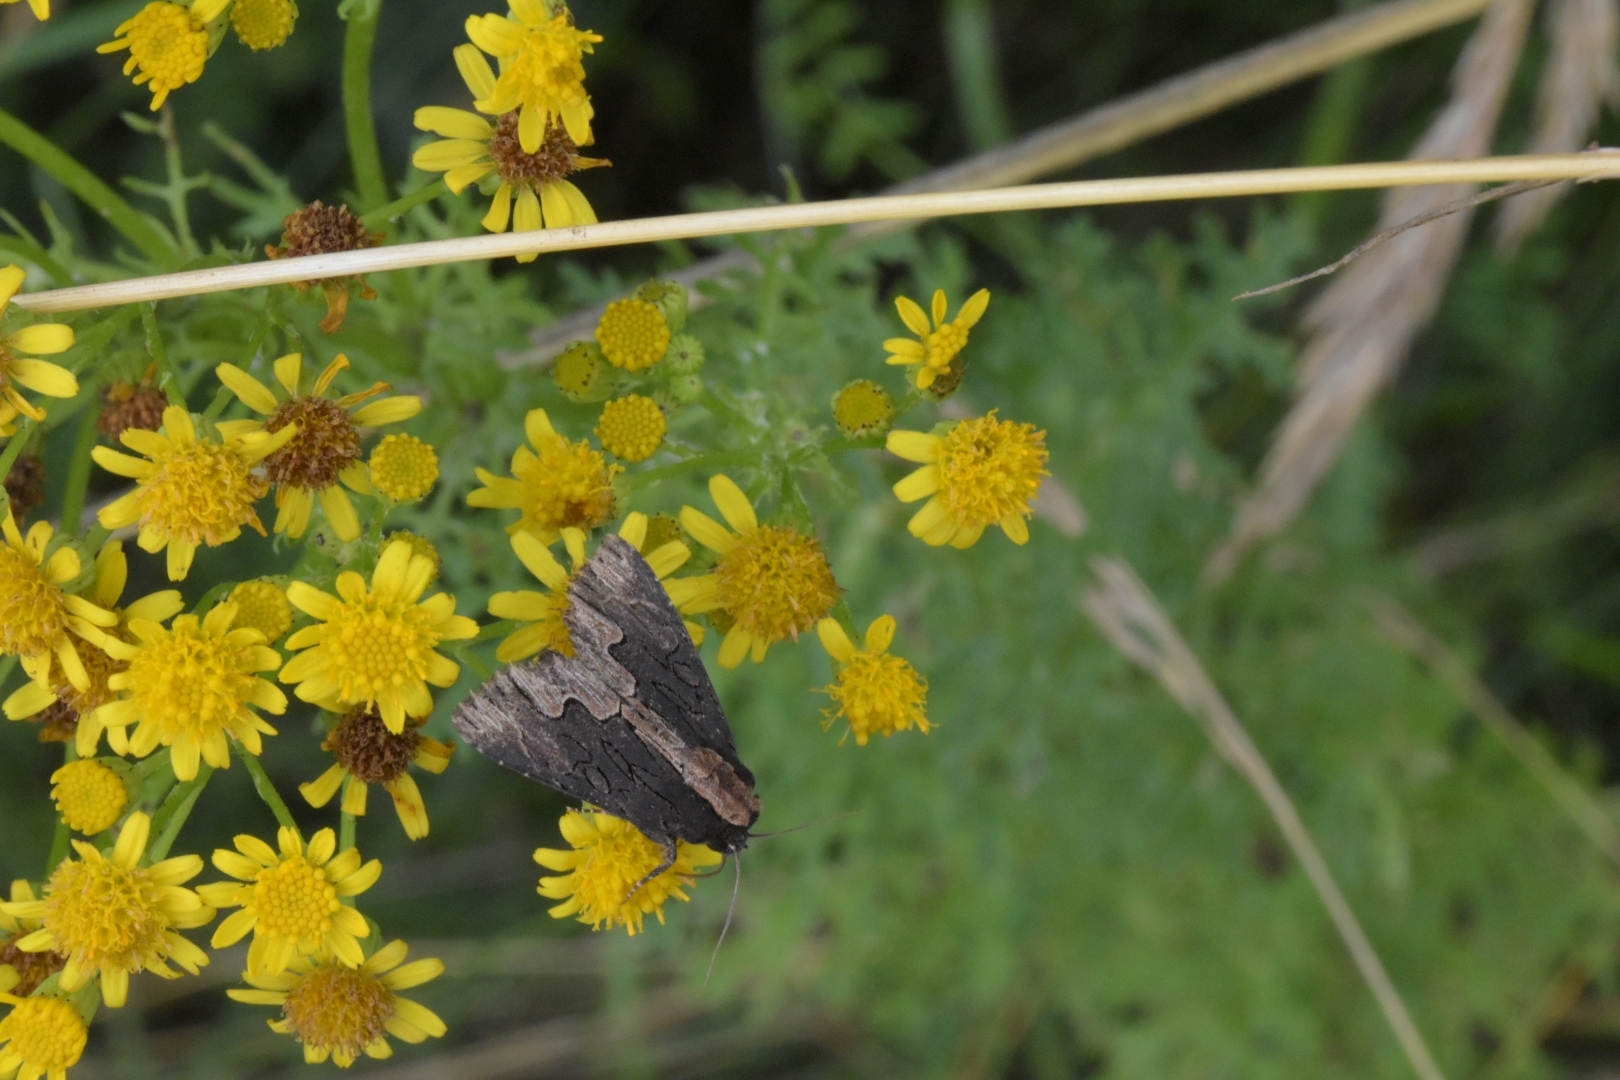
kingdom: Animalia
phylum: Arthropoda
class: Insecta
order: Lepidoptera
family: Noctuidae
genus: Dypterygia
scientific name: Dypterygia scabriuscula
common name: Bird's wing
